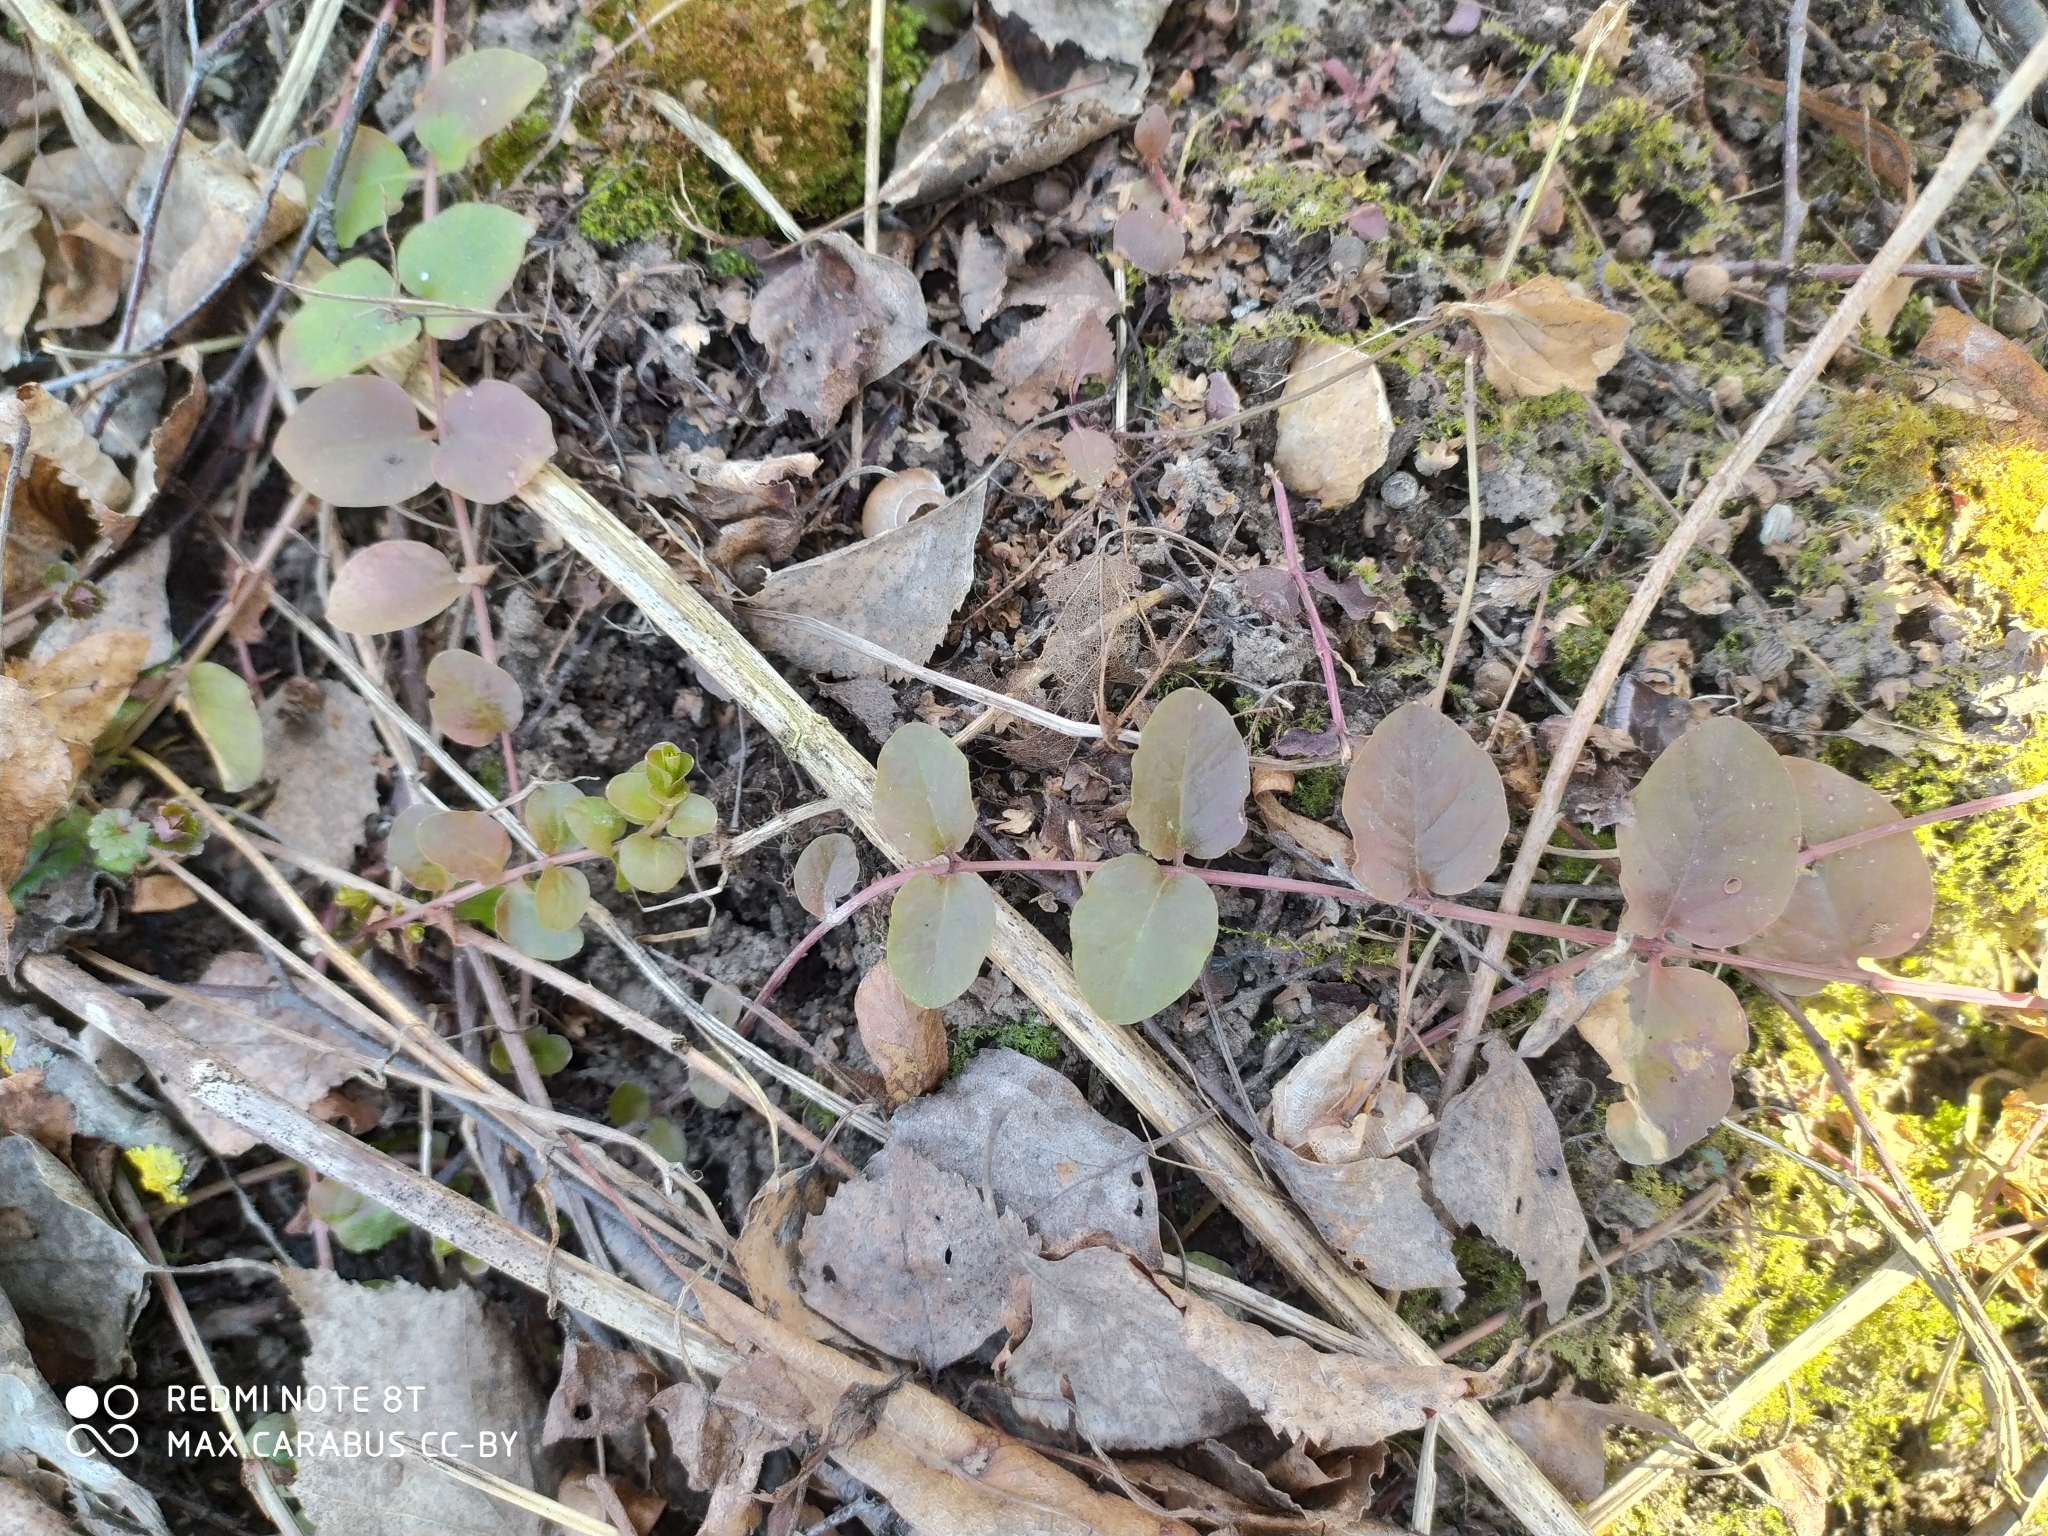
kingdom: Plantae
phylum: Tracheophyta
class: Magnoliopsida
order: Ericales
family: Primulaceae
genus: Lysimachia
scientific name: Lysimachia nummularia
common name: Moneywort
